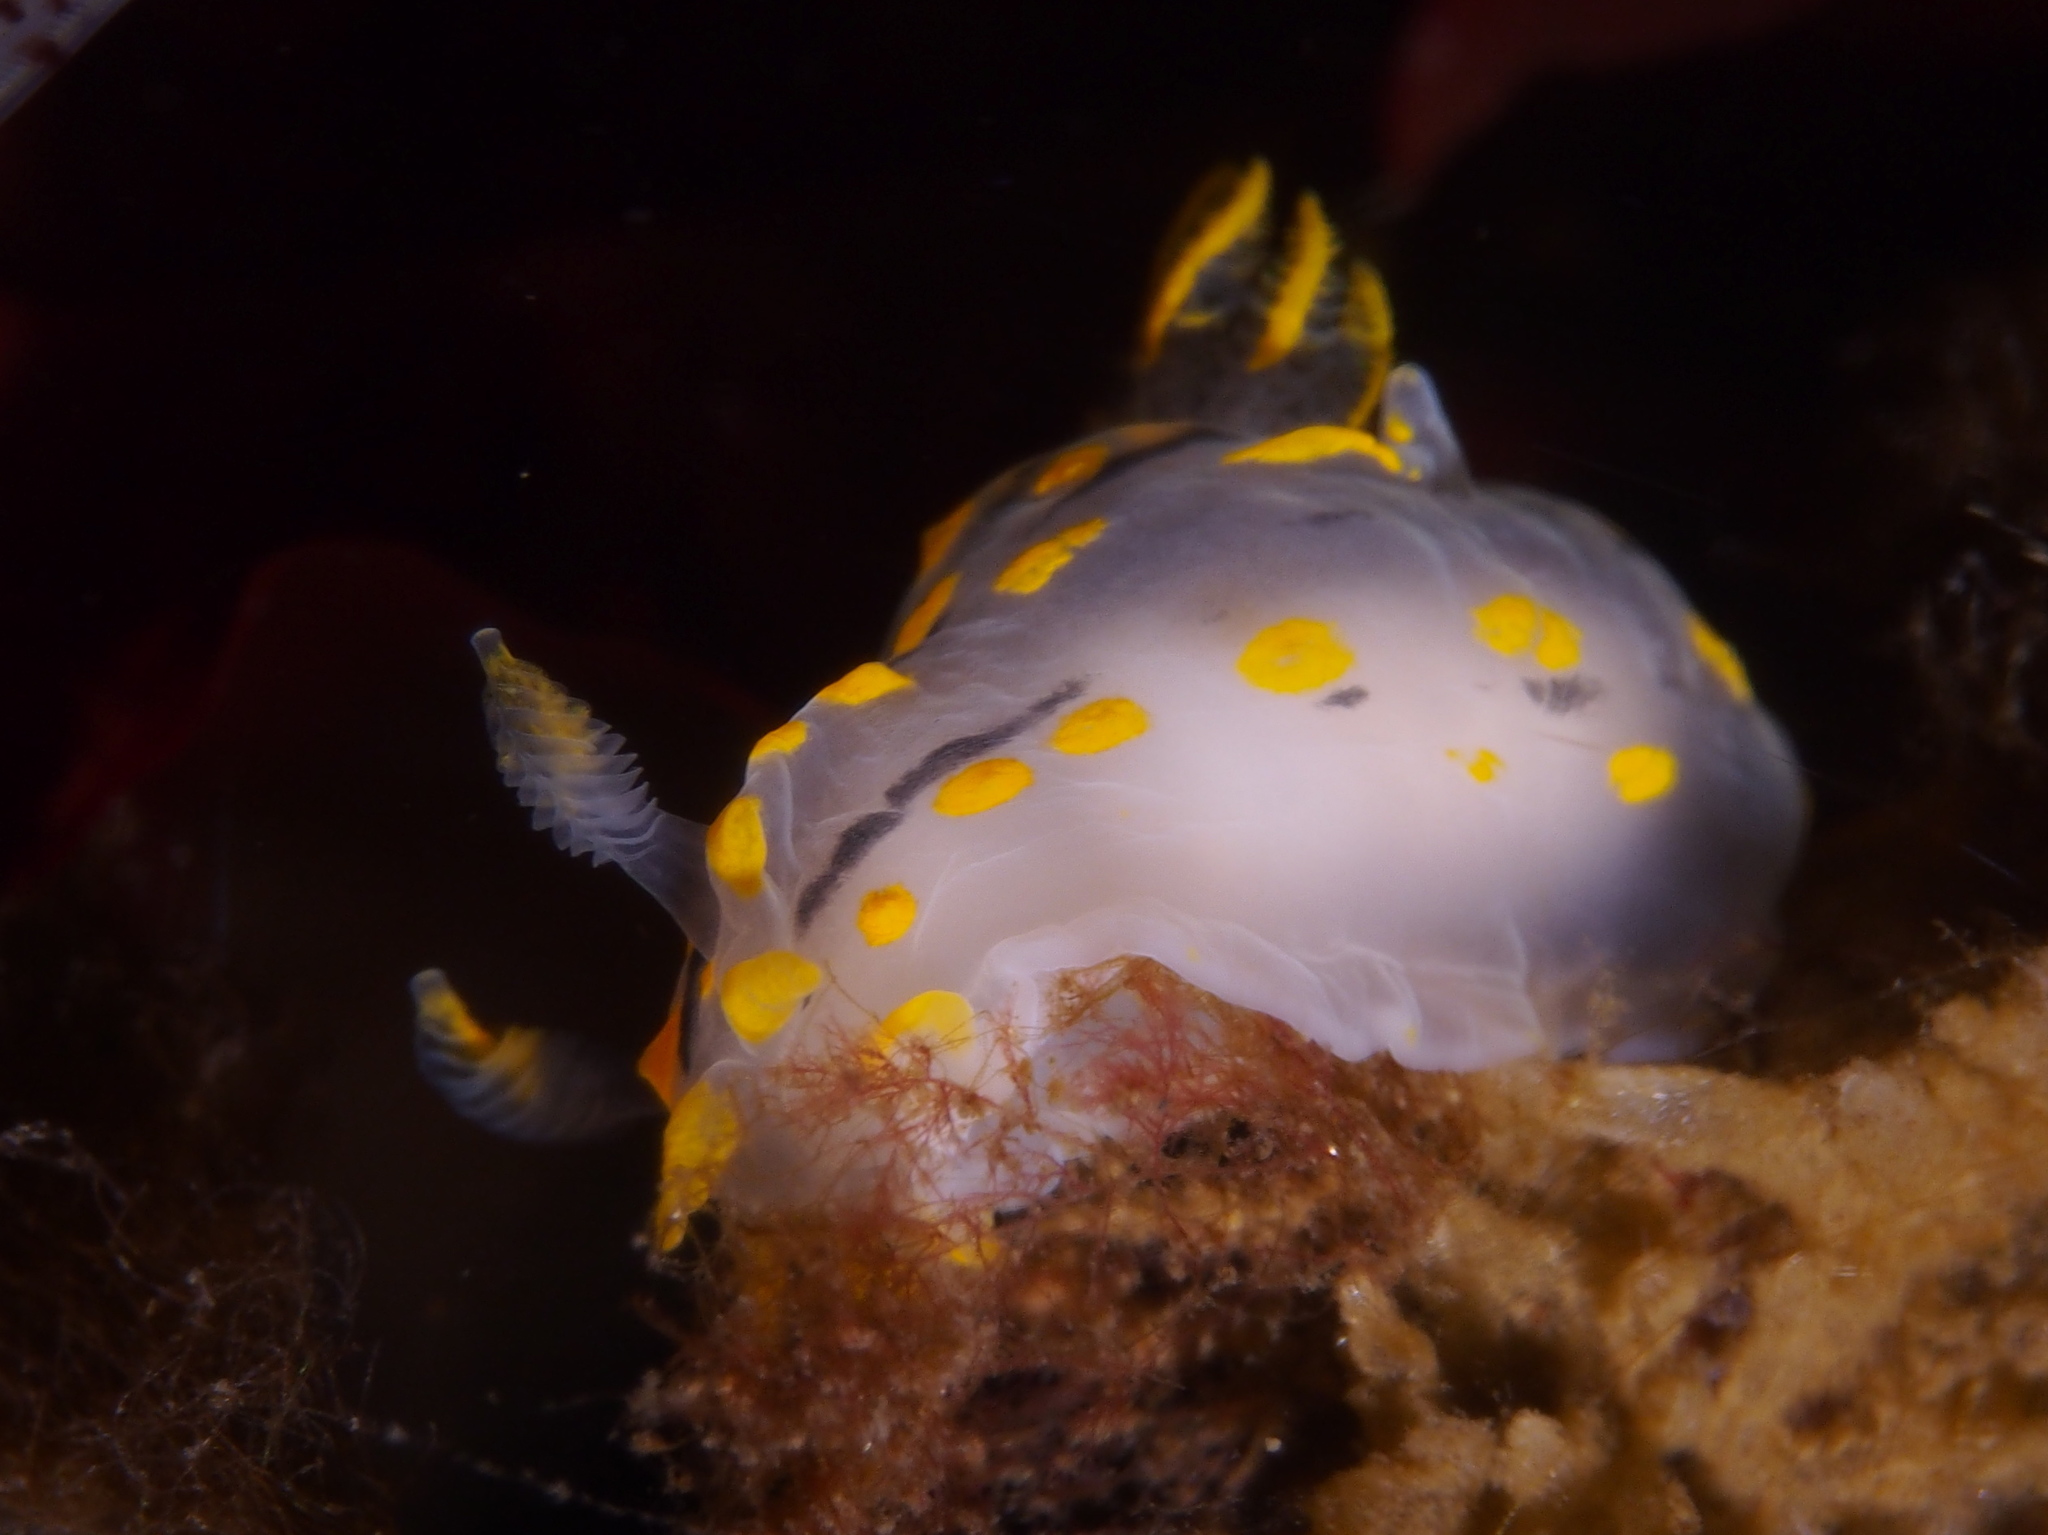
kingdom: Animalia
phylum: Mollusca
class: Gastropoda
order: Nudibranchia
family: Polyceridae
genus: Polycera
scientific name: Polycera quadrilineata
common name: Four-striped polycera
